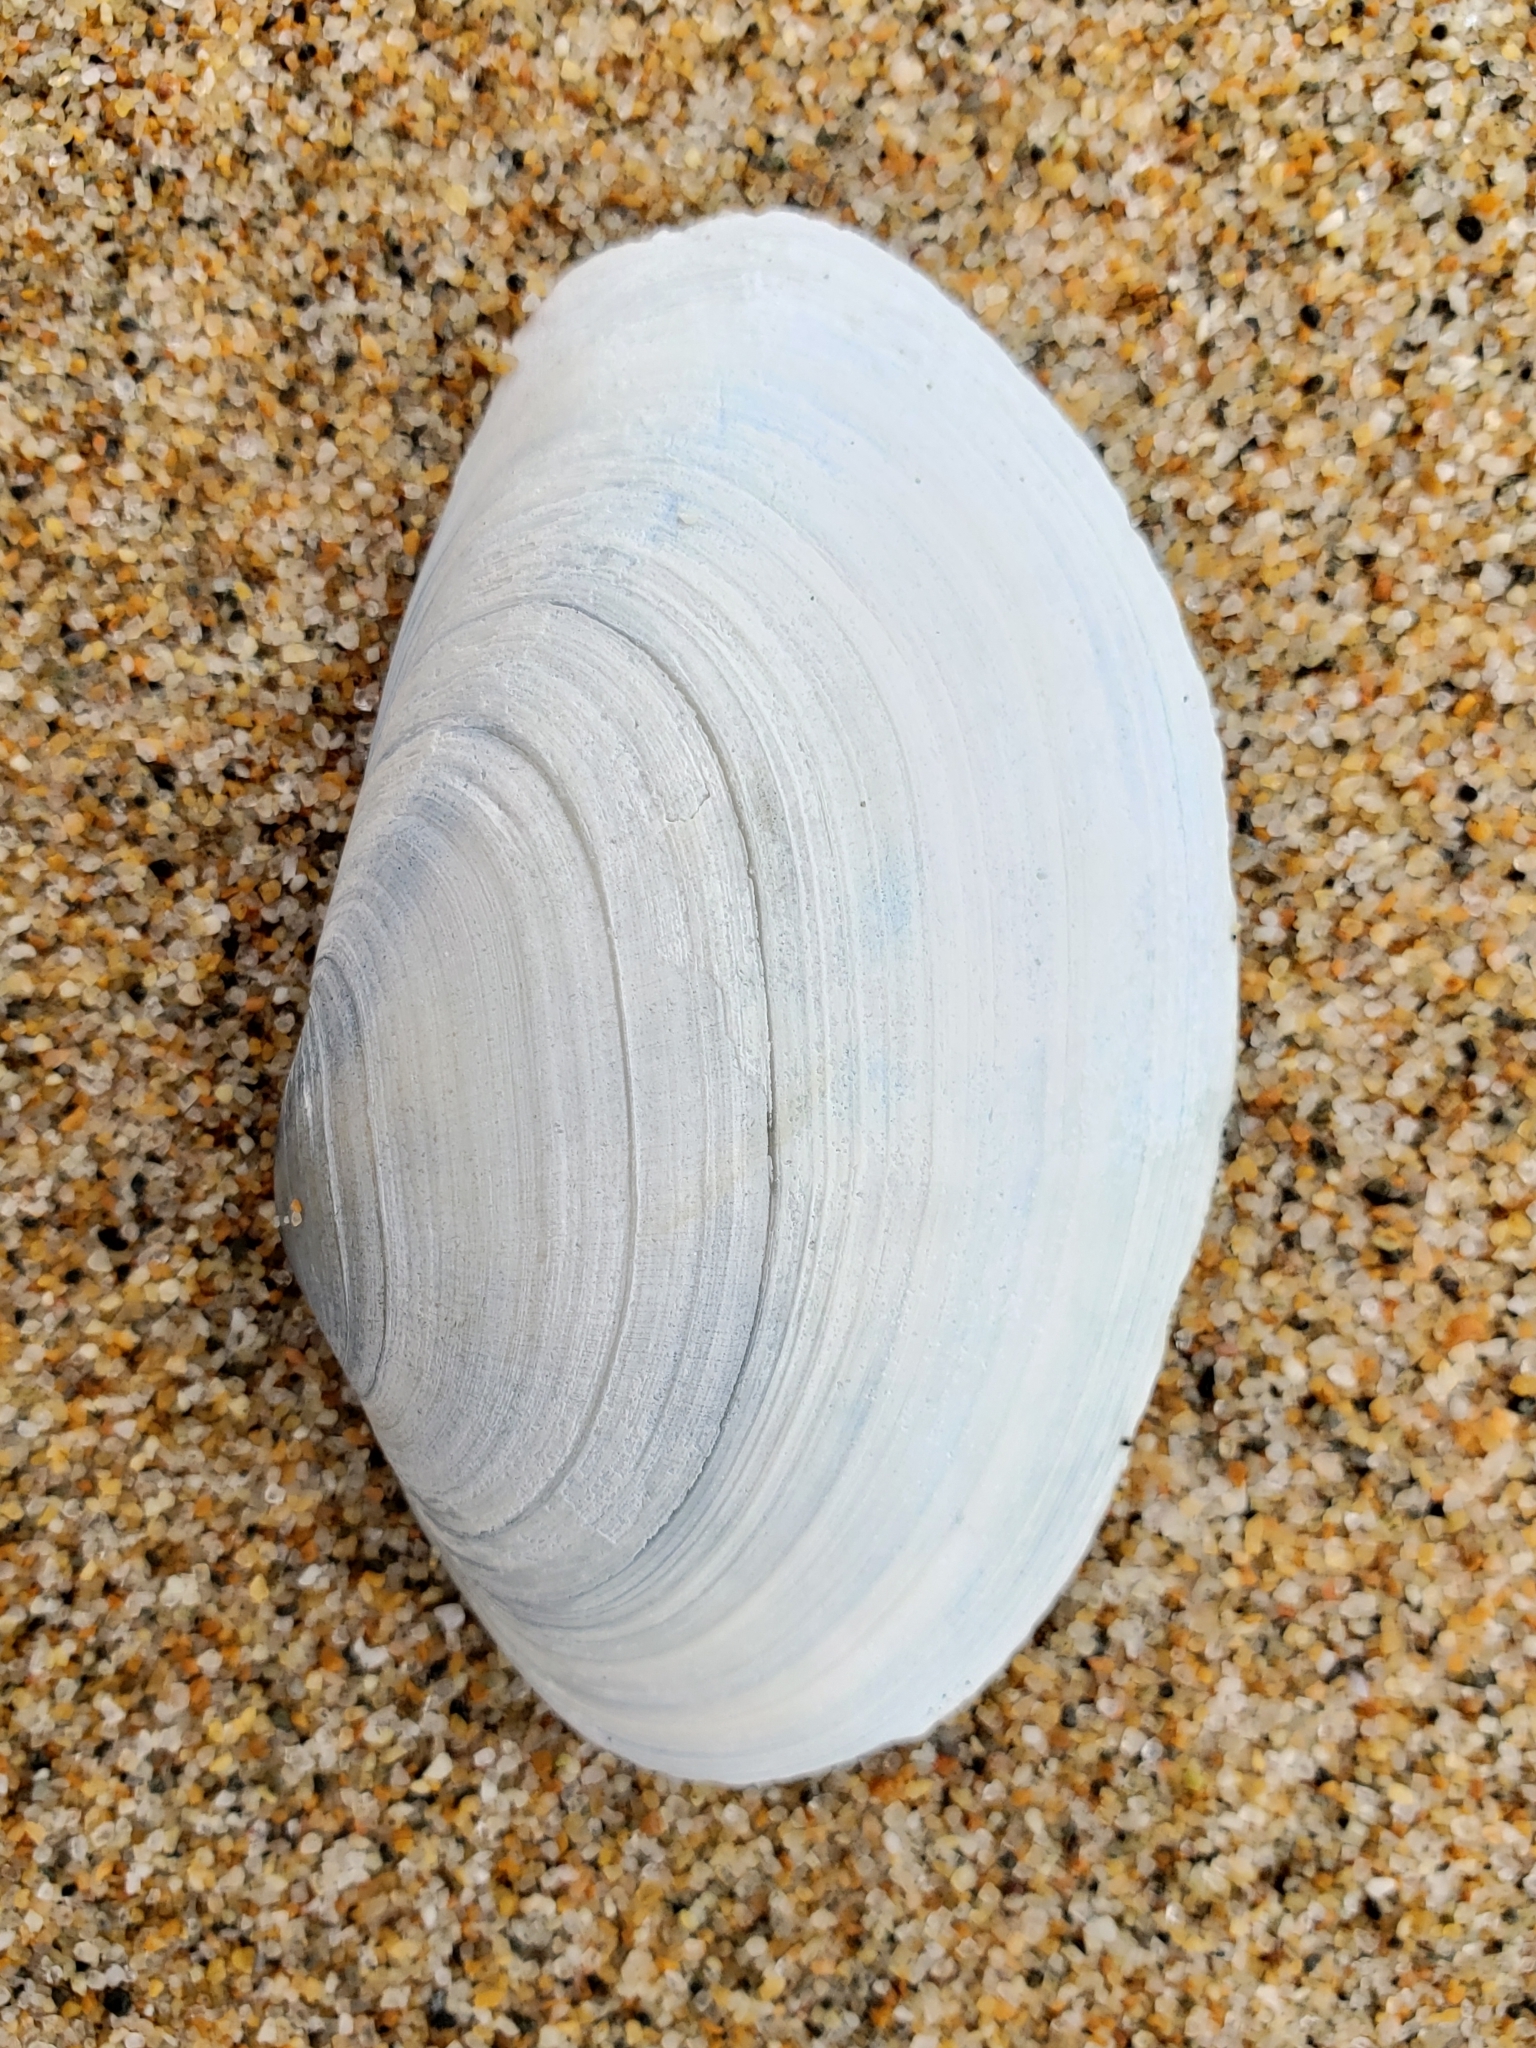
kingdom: Animalia
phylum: Mollusca
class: Bivalvia
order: Venerida
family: Mactridae
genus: Tresus
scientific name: Tresus nuttallii
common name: Pacific gaper clam
